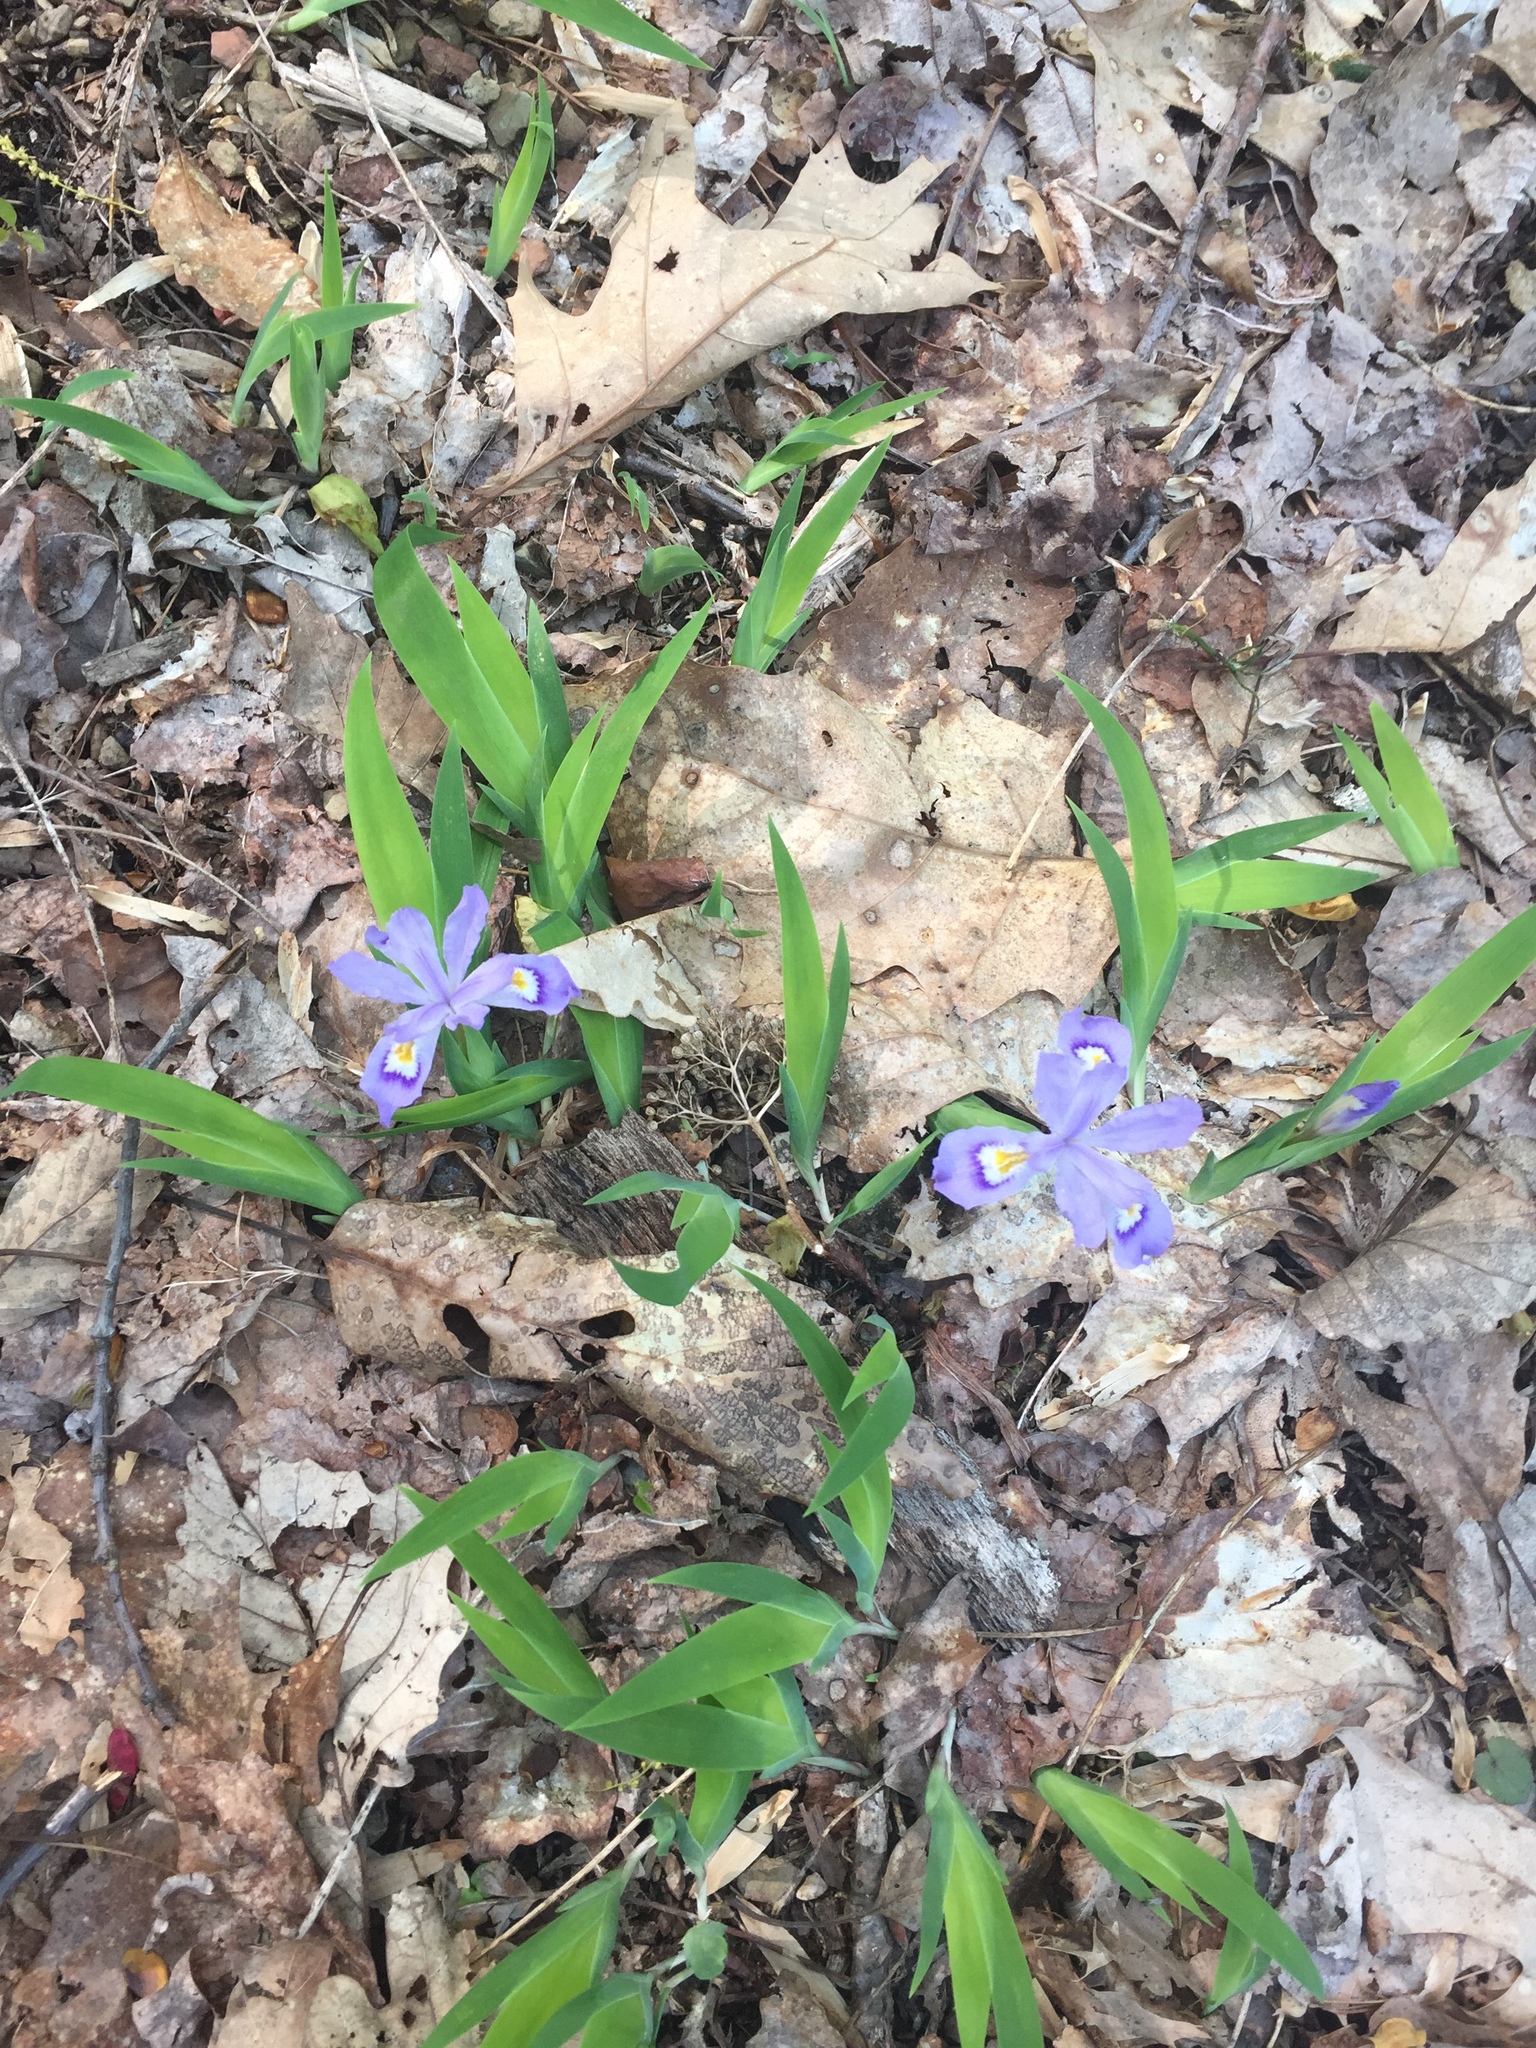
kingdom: Plantae
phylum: Tracheophyta
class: Liliopsida
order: Asparagales
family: Iridaceae
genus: Iris
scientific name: Iris cristata
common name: Crested iris
